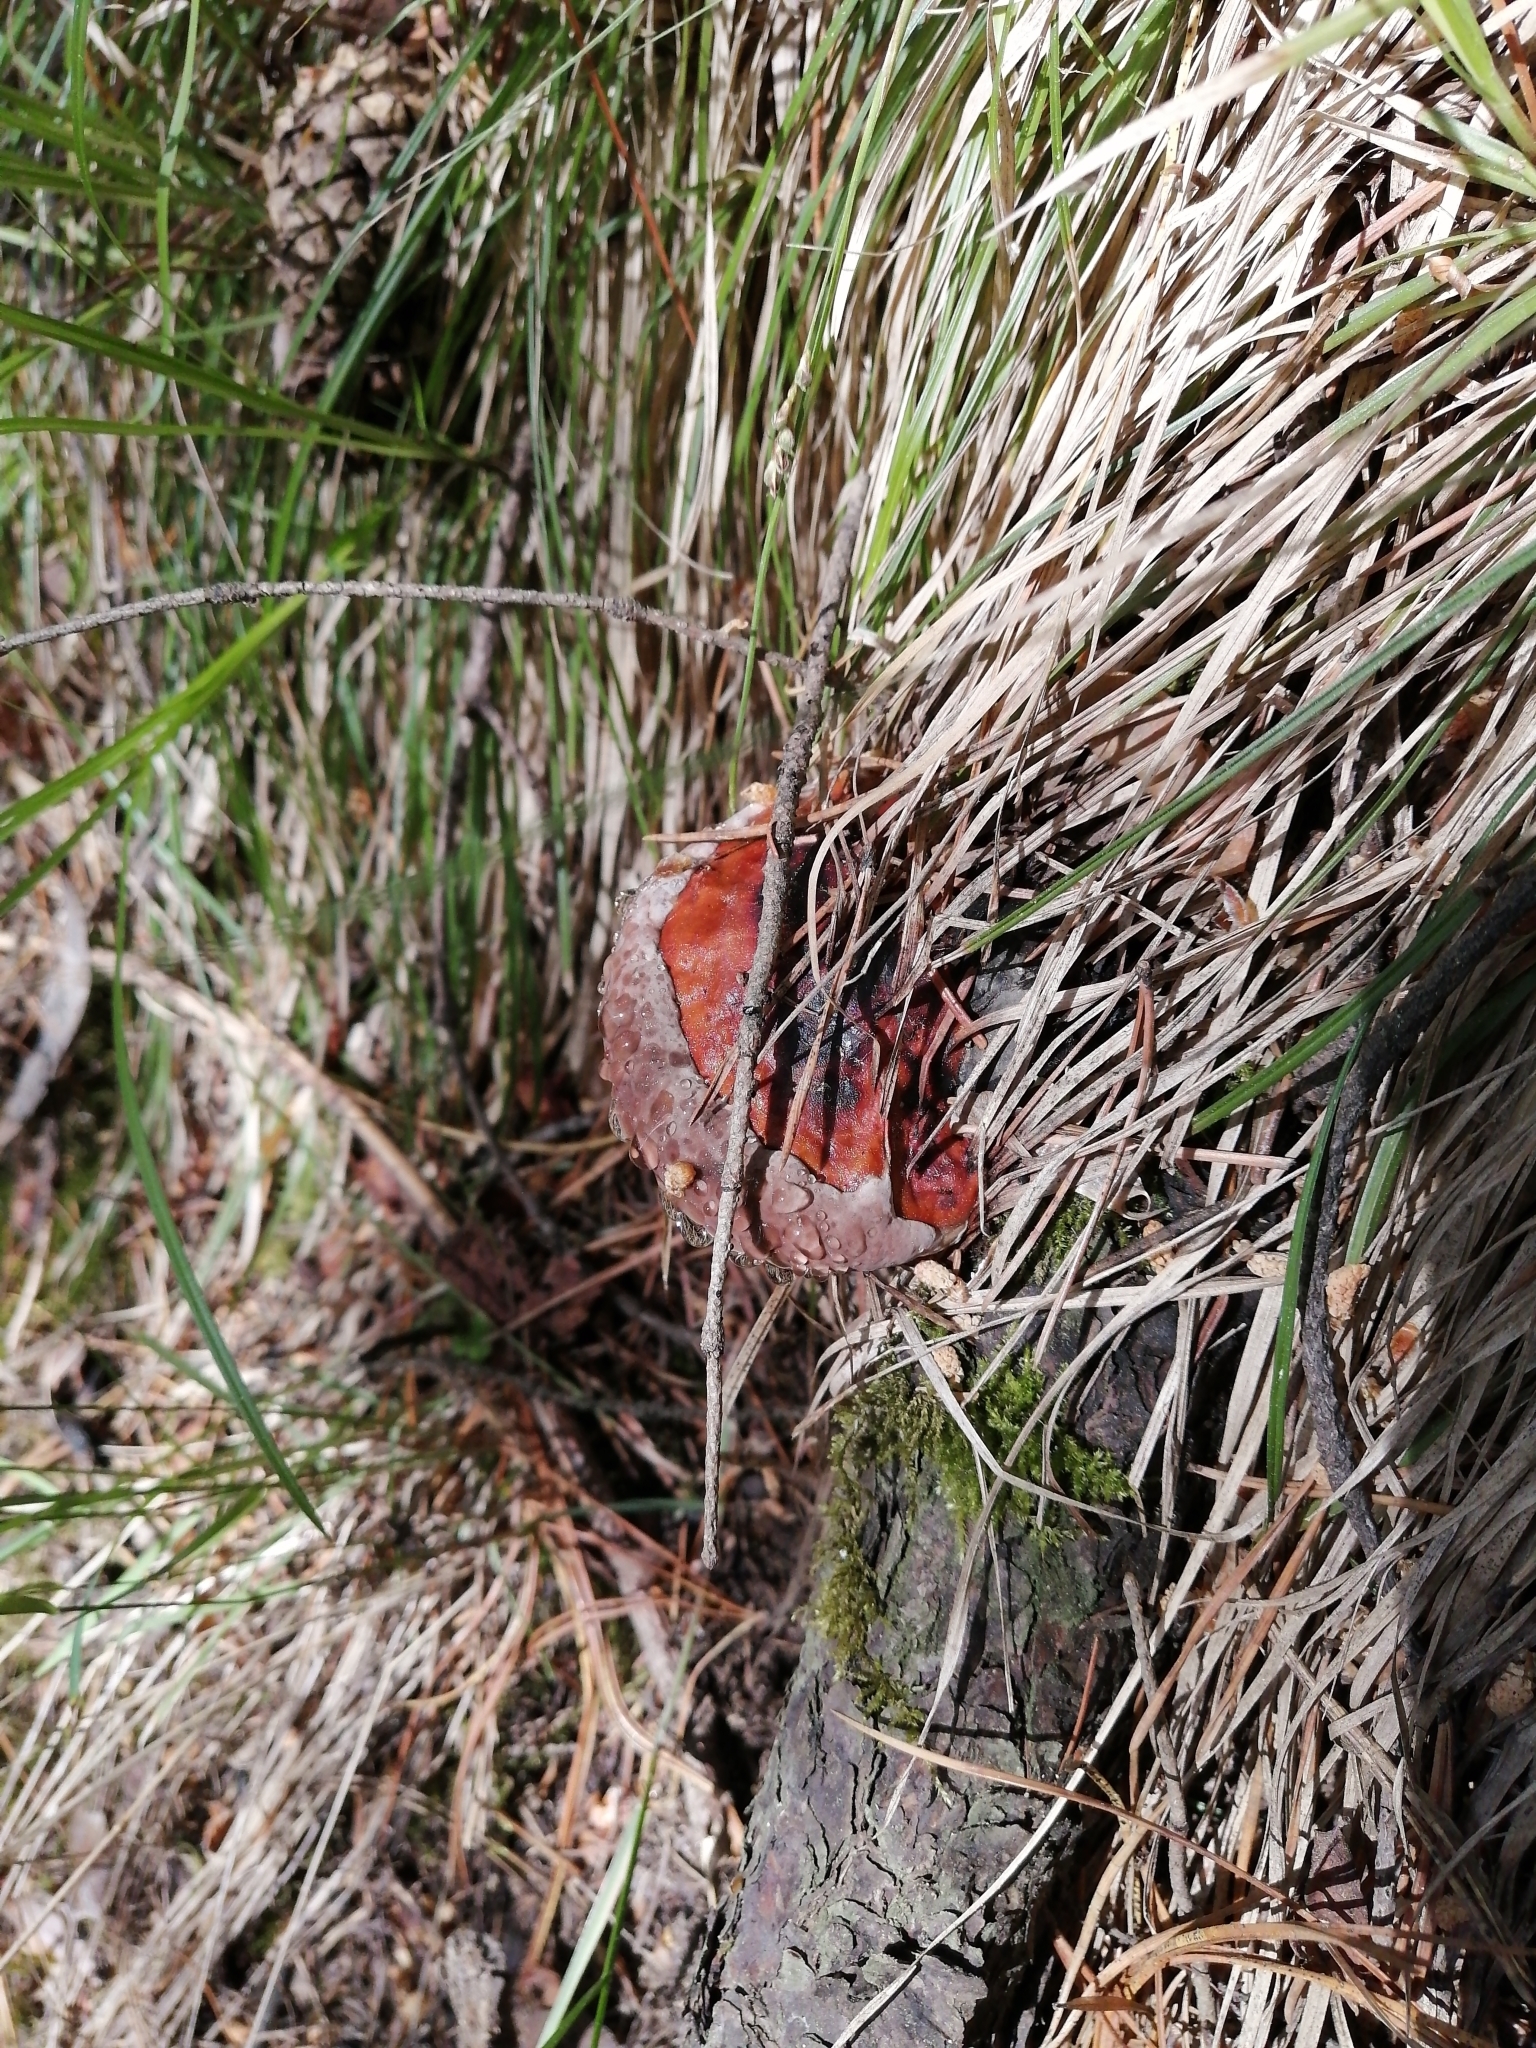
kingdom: Fungi
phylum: Basidiomycota
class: Agaricomycetes
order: Polyporales
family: Fomitopsidaceae
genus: Fomitopsis
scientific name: Fomitopsis pinicola
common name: Red-belted bracket
